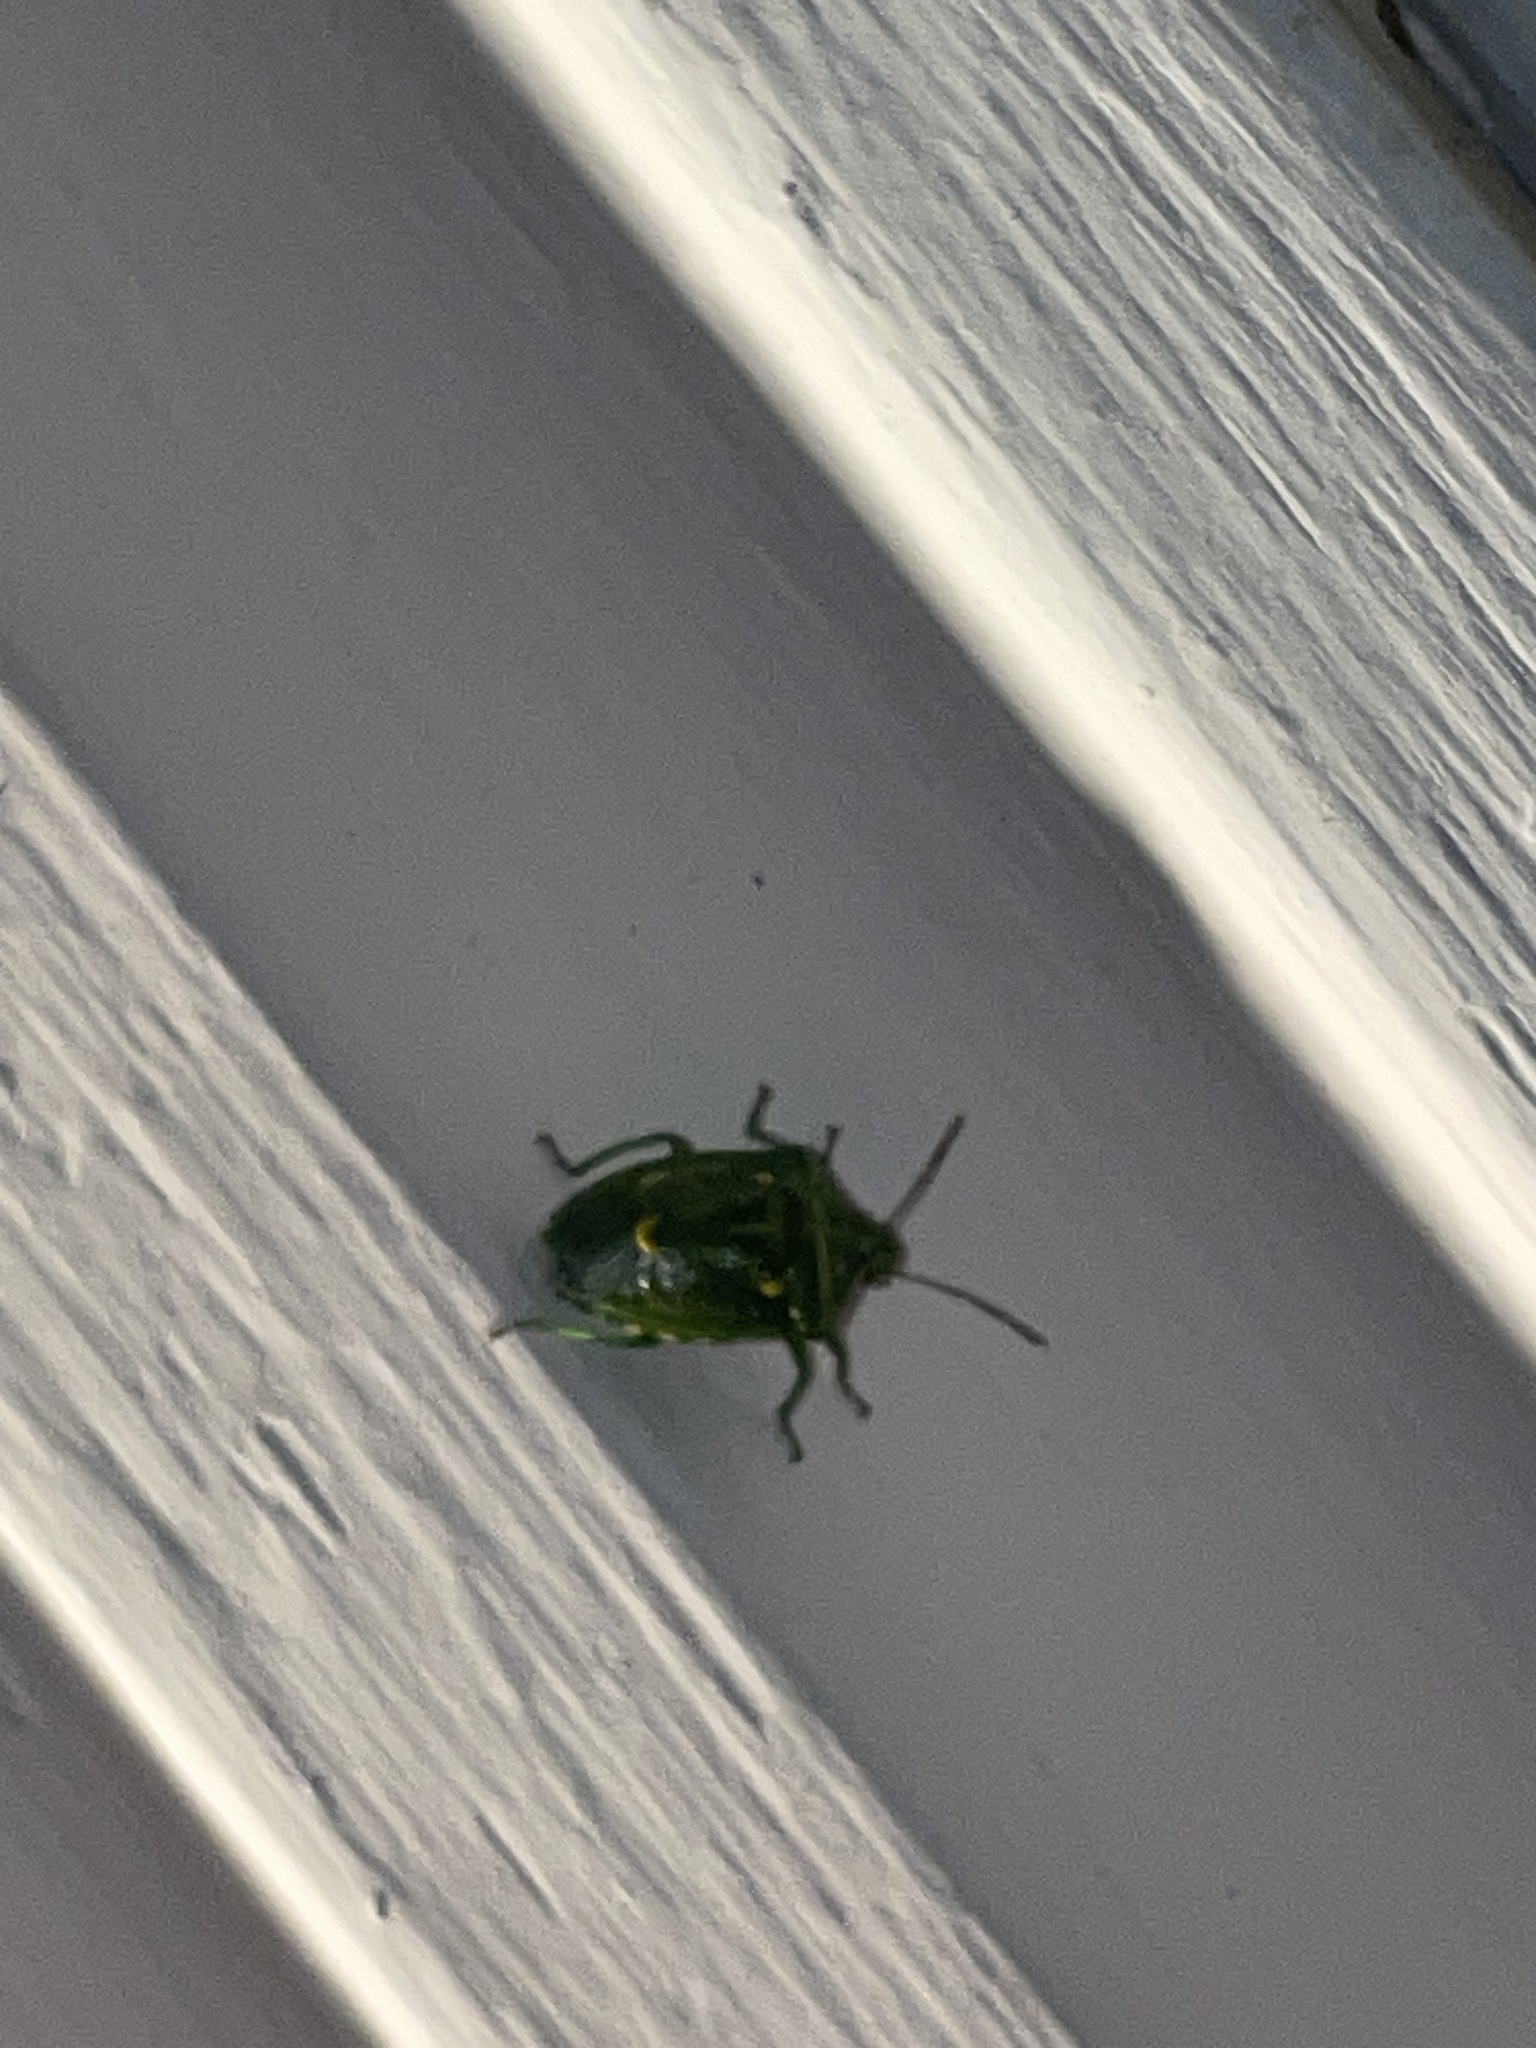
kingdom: Animalia
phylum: Arthropoda
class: Insecta
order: Hemiptera
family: Pentatomidae
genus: Banasa
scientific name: Banasa euchlora
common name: Cedar berry bug
